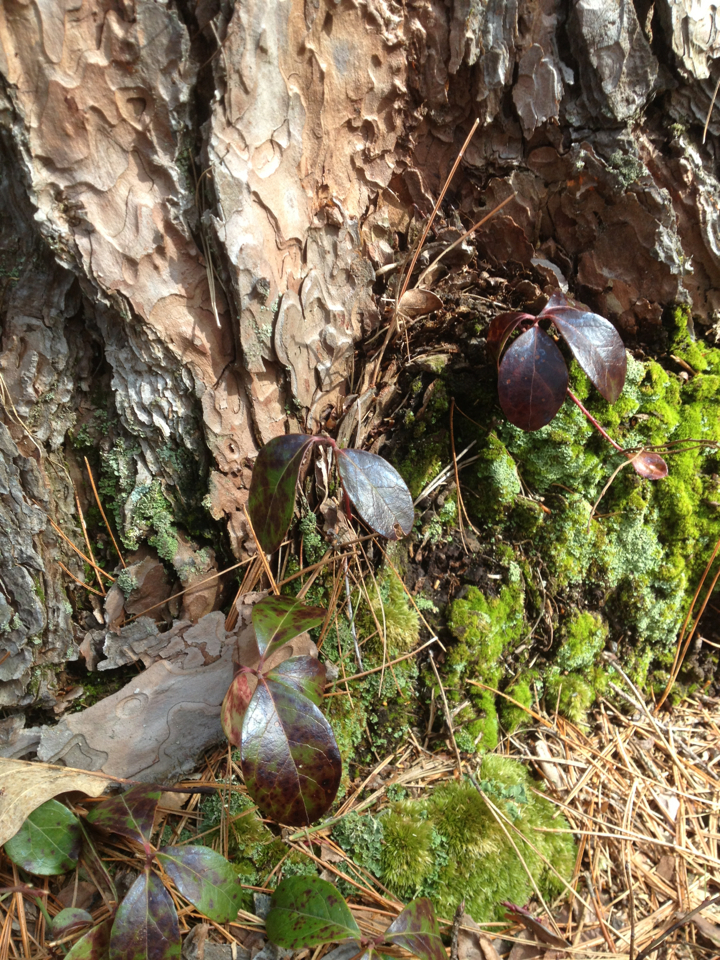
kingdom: Plantae
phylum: Tracheophyta
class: Magnoliopsida
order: Ericales
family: Ericaceae
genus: Gaultheria
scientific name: Gaultheria procumbens
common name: Checkerberry
